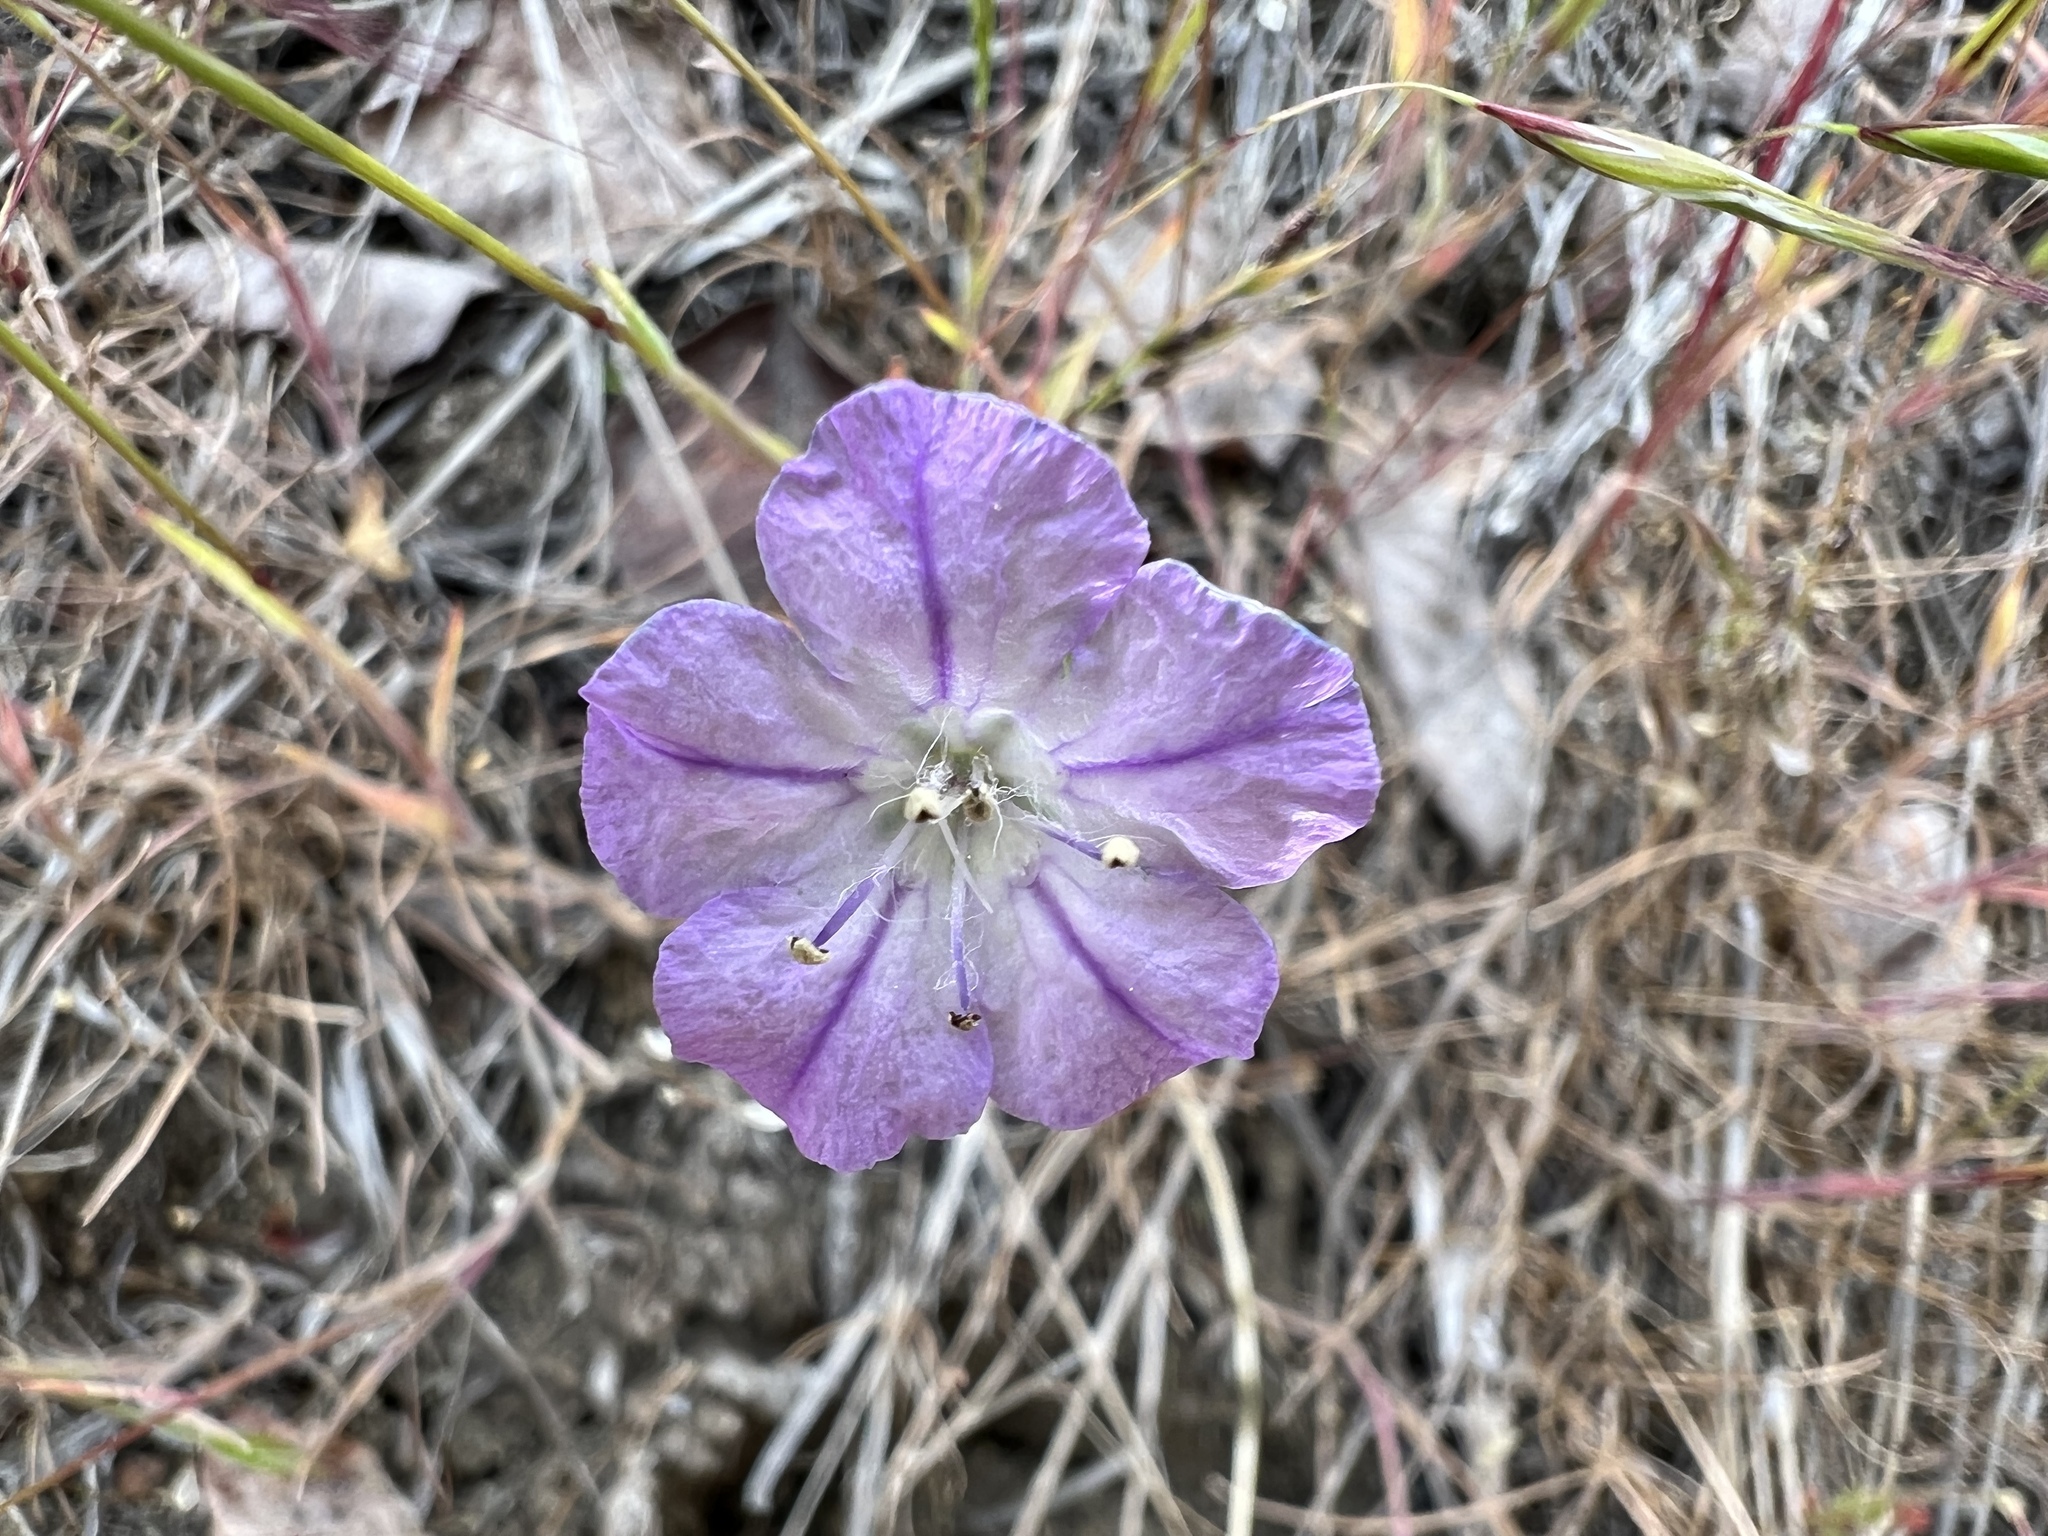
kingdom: Plantae
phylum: Tracheophyta
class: Magnoliopsida
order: Boraginales
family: Hydrophyllaceae
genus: Phacelia
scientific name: Phacelia linearis
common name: Linear-leaved phacelia
